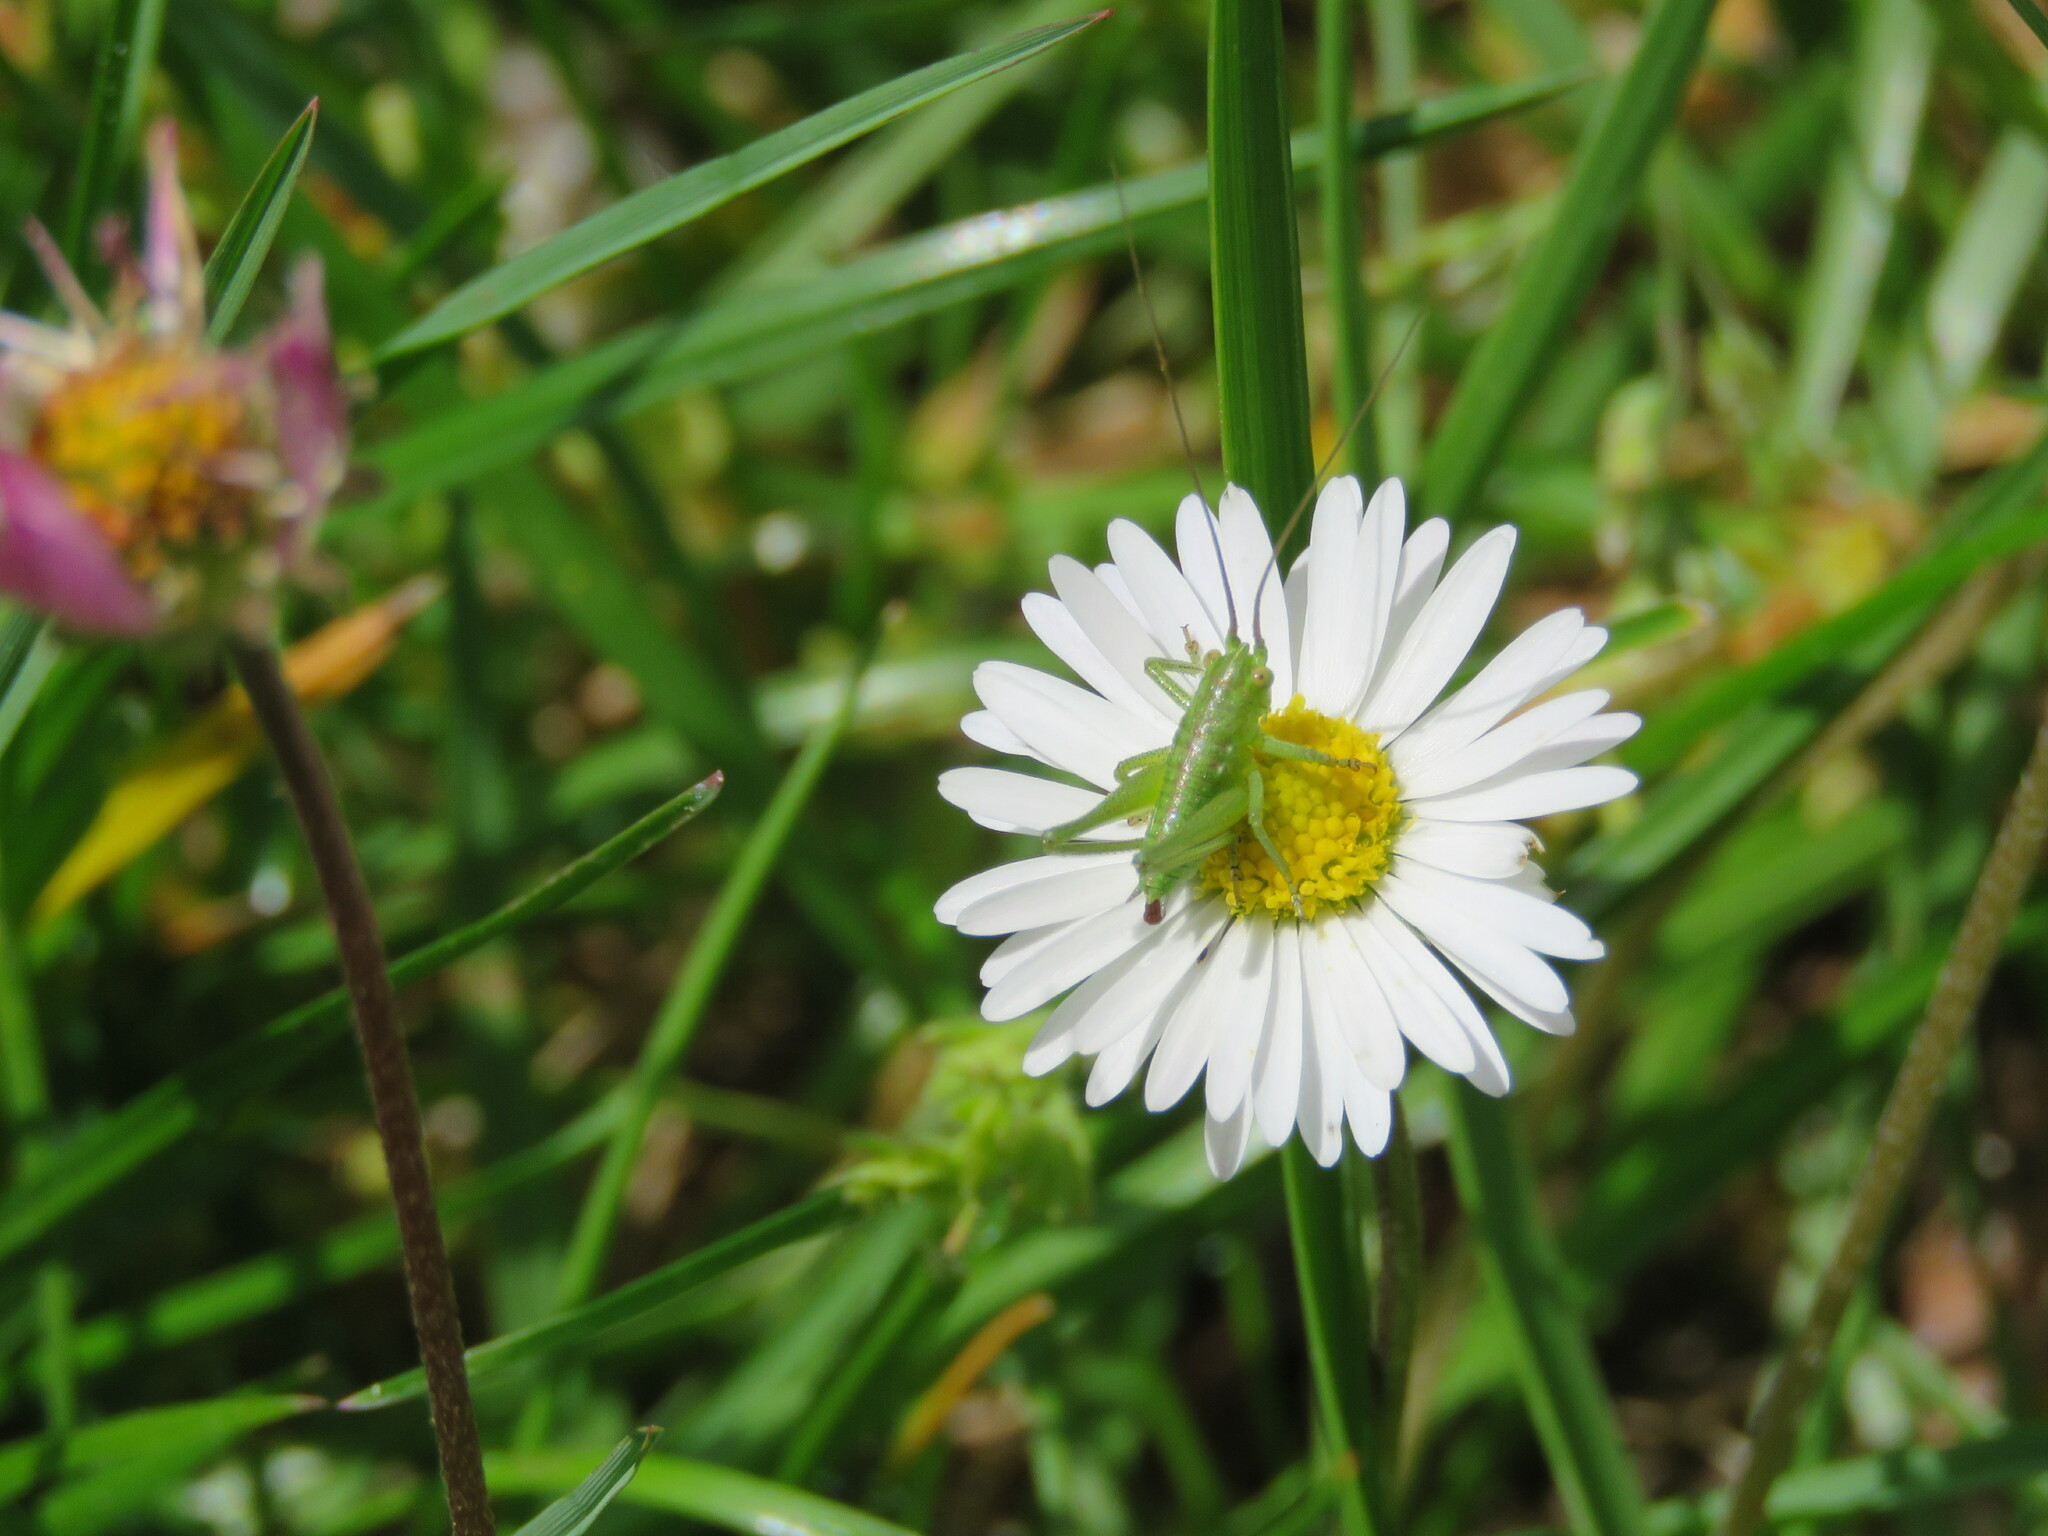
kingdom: Animalia
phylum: Arthropoda
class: Insecta
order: Orthoptera
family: Tettigoniidae
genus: Tettigonia
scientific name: Tettigonia viridissima
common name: Great green bush-cricket
